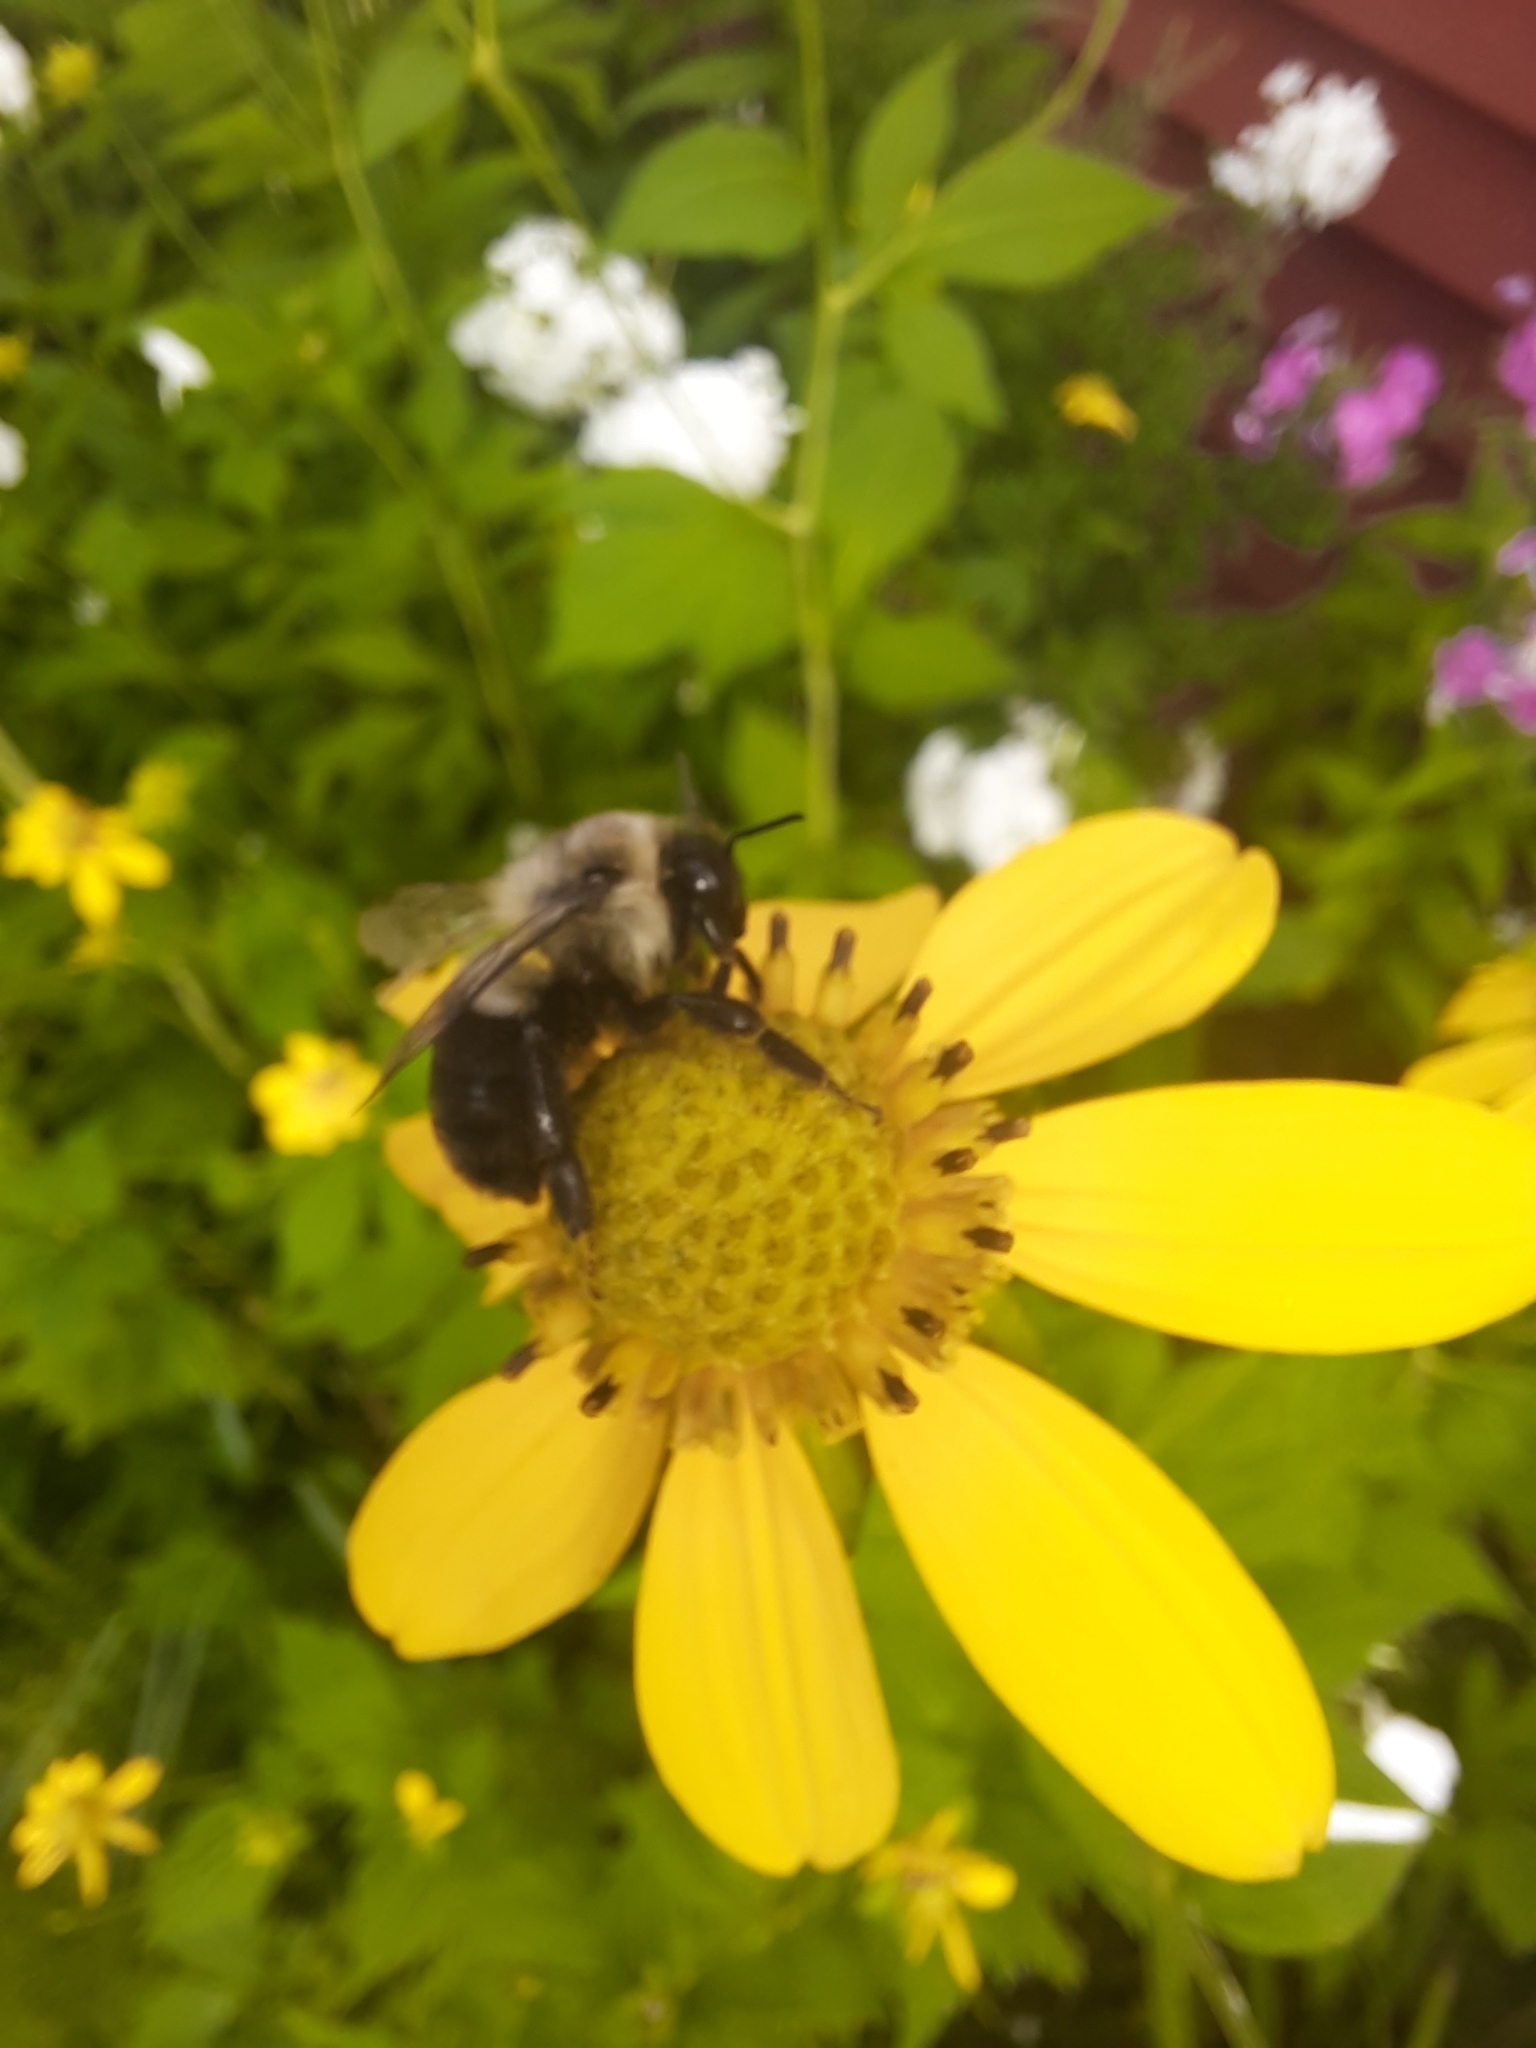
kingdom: Animalia
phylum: Arthropoda
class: Insecta
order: Hymenoptera
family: Apidae
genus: Bombus
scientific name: Bombus impatiens
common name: Common eastern bumble bee
